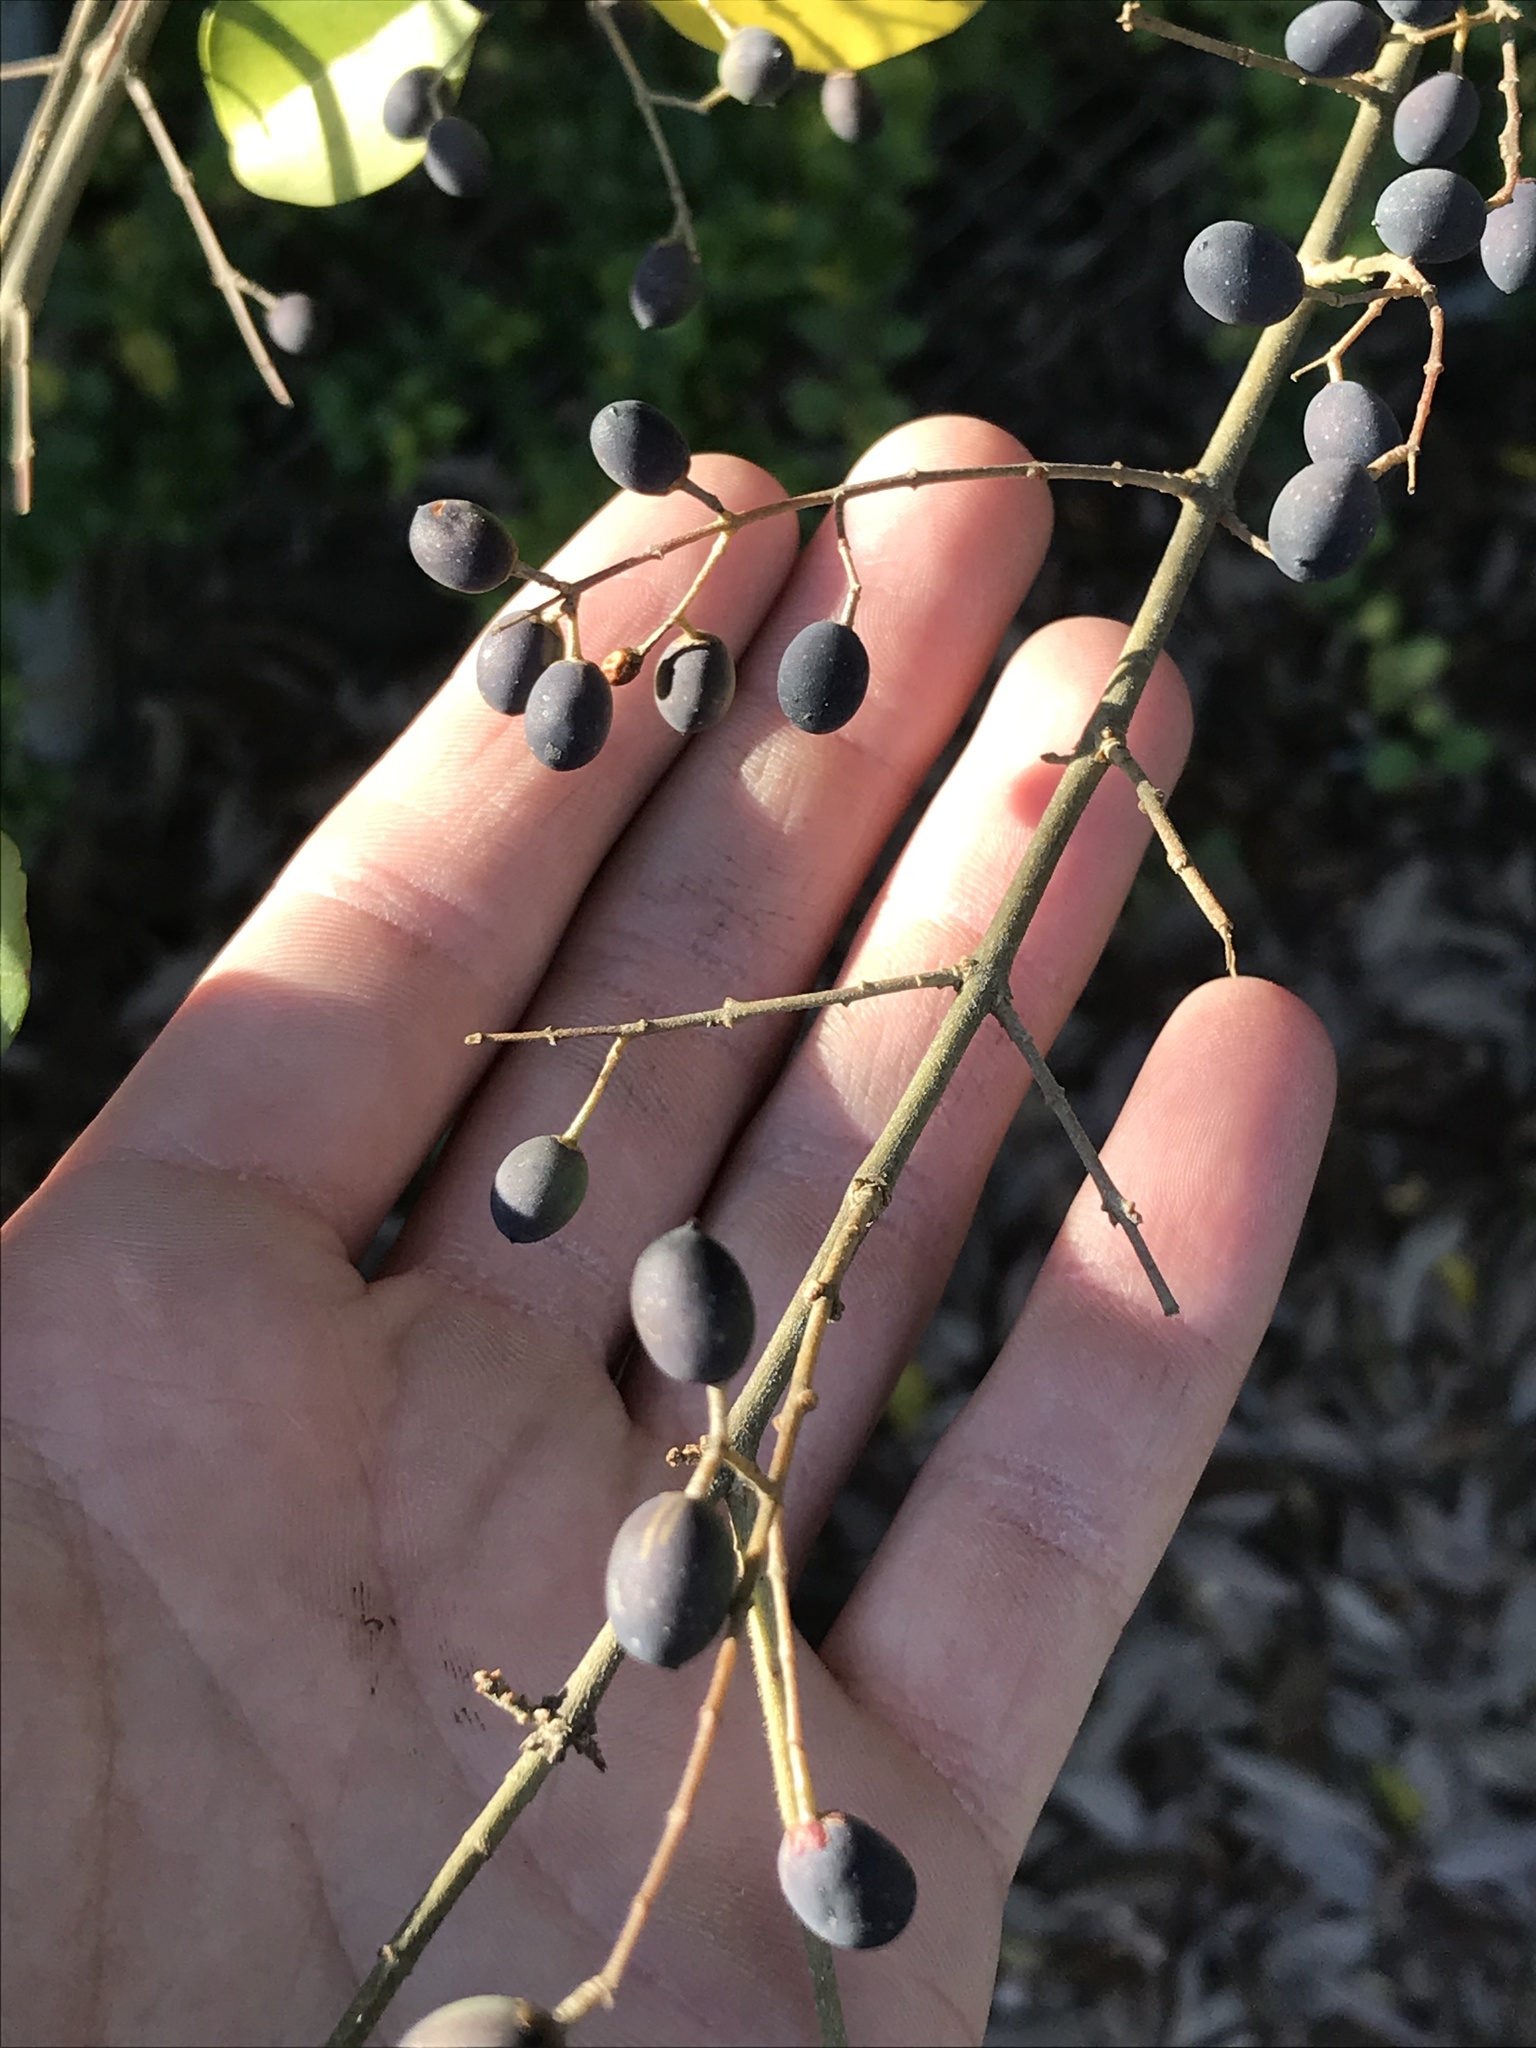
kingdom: Plantae
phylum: Tracheophyta
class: Magnoliopsida
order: Lamiales
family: Oleaceae
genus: Ligustrum
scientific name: Ligustrum sinense
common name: Chinese privet
